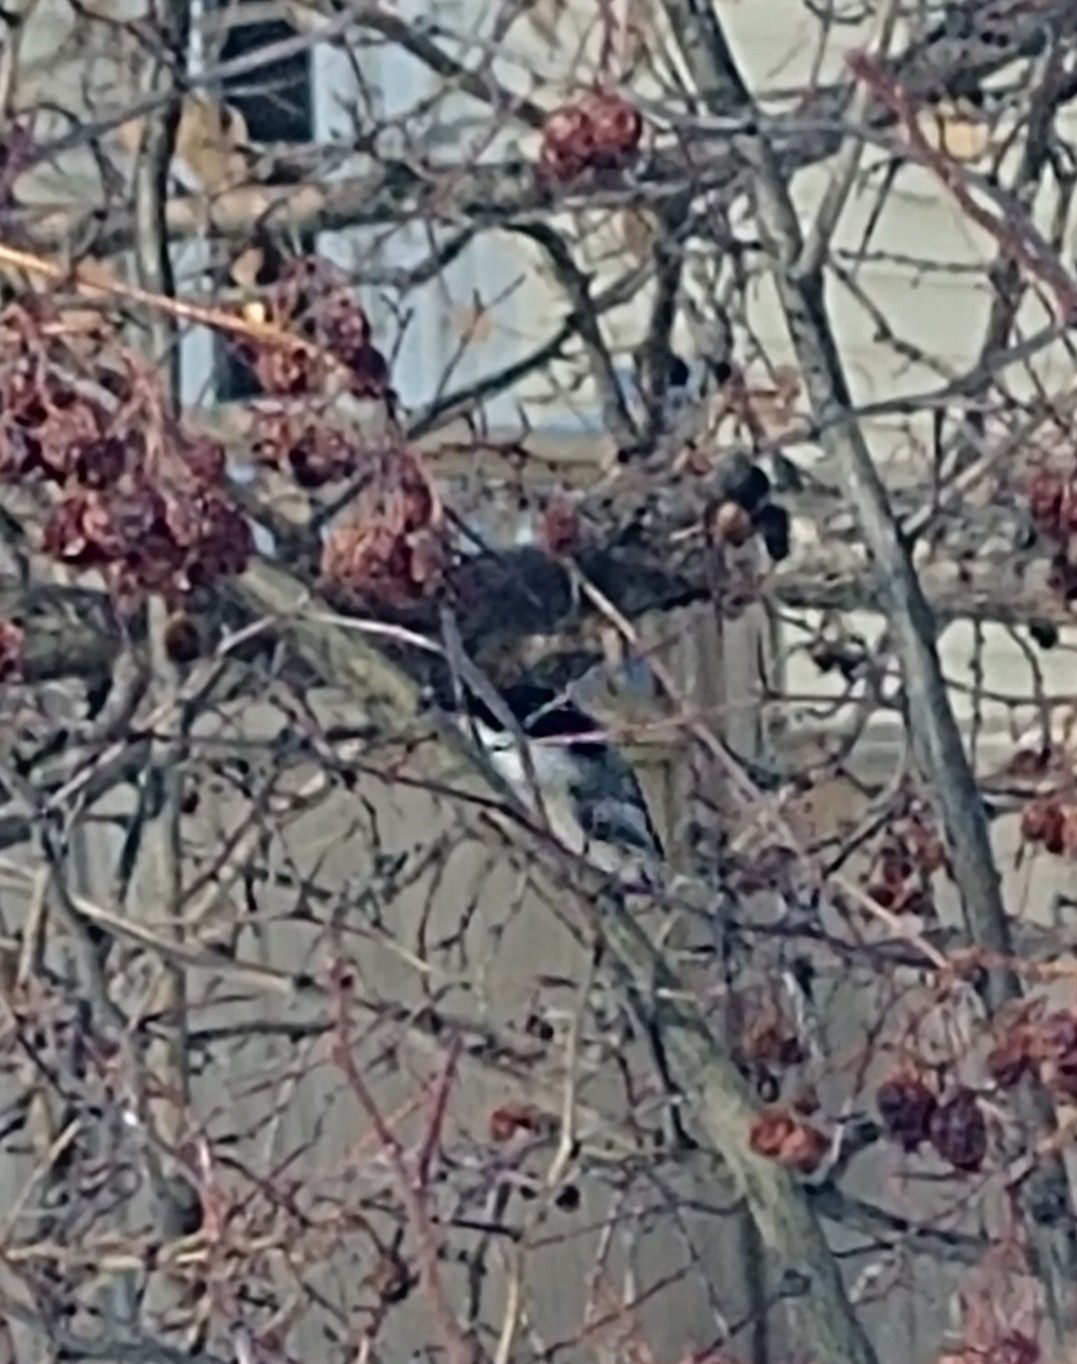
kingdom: Animalia
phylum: Chordata
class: Aves
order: Passeriformes
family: Paridae
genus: Poecile
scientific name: Poecile atricapillus
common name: Black-capped chickadee
